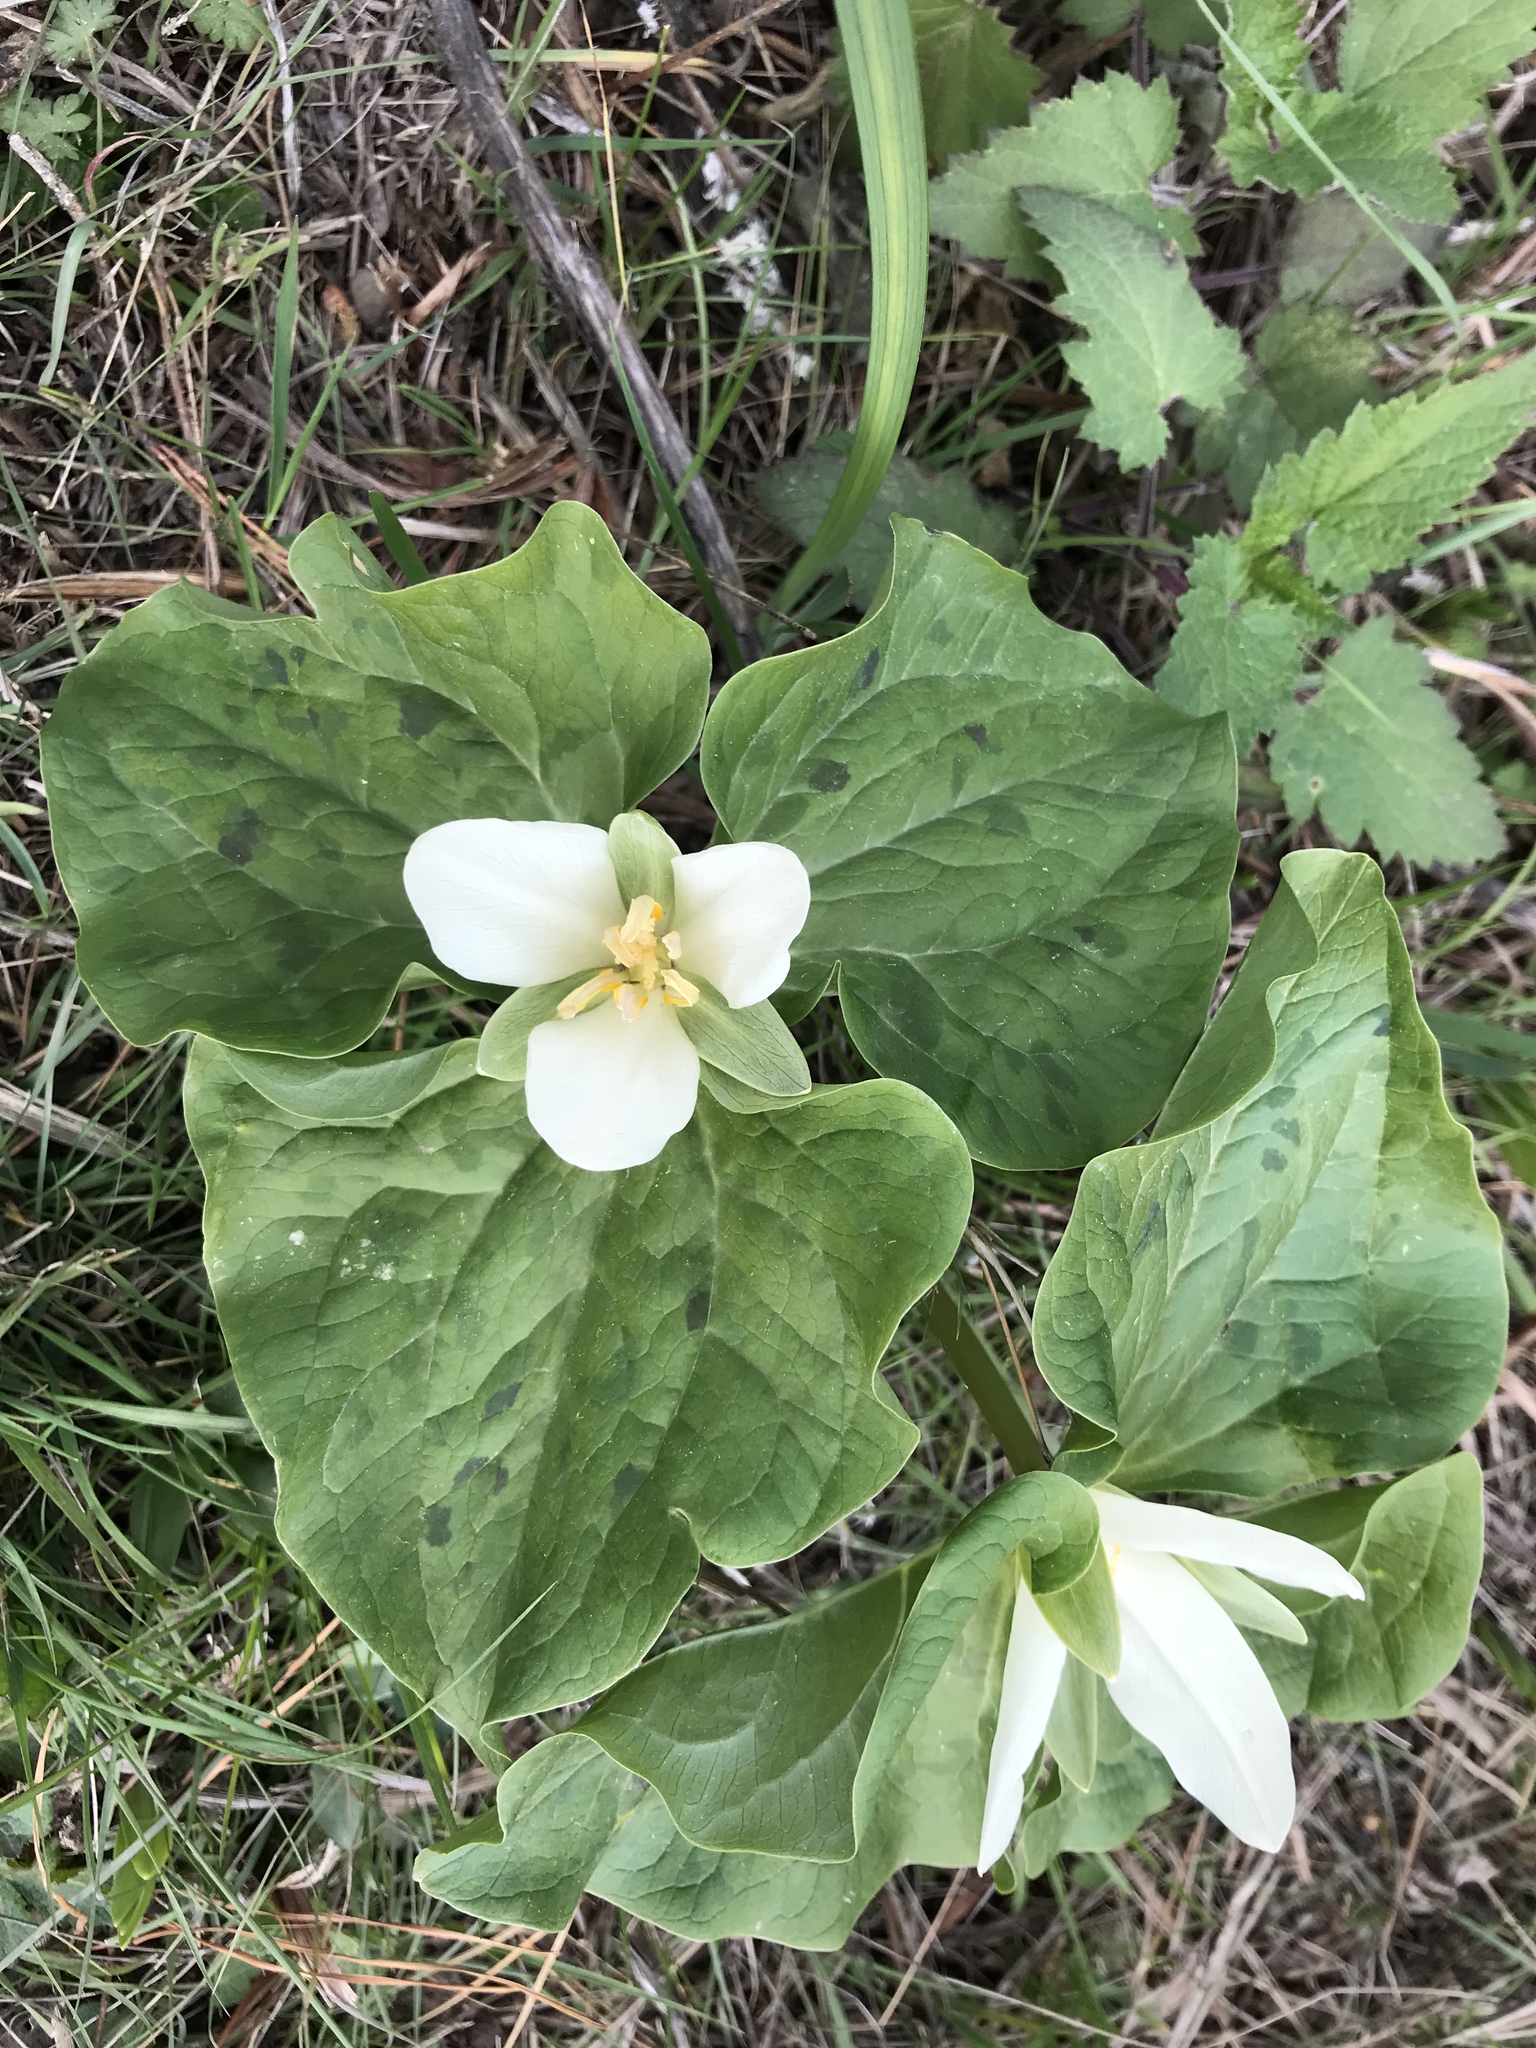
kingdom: Plantae
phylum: Tracheophyta
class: Liliopsida
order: Liliales
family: Melanthiaceae
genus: Trillium
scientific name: Trillium albidum
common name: Freeman's trillium
